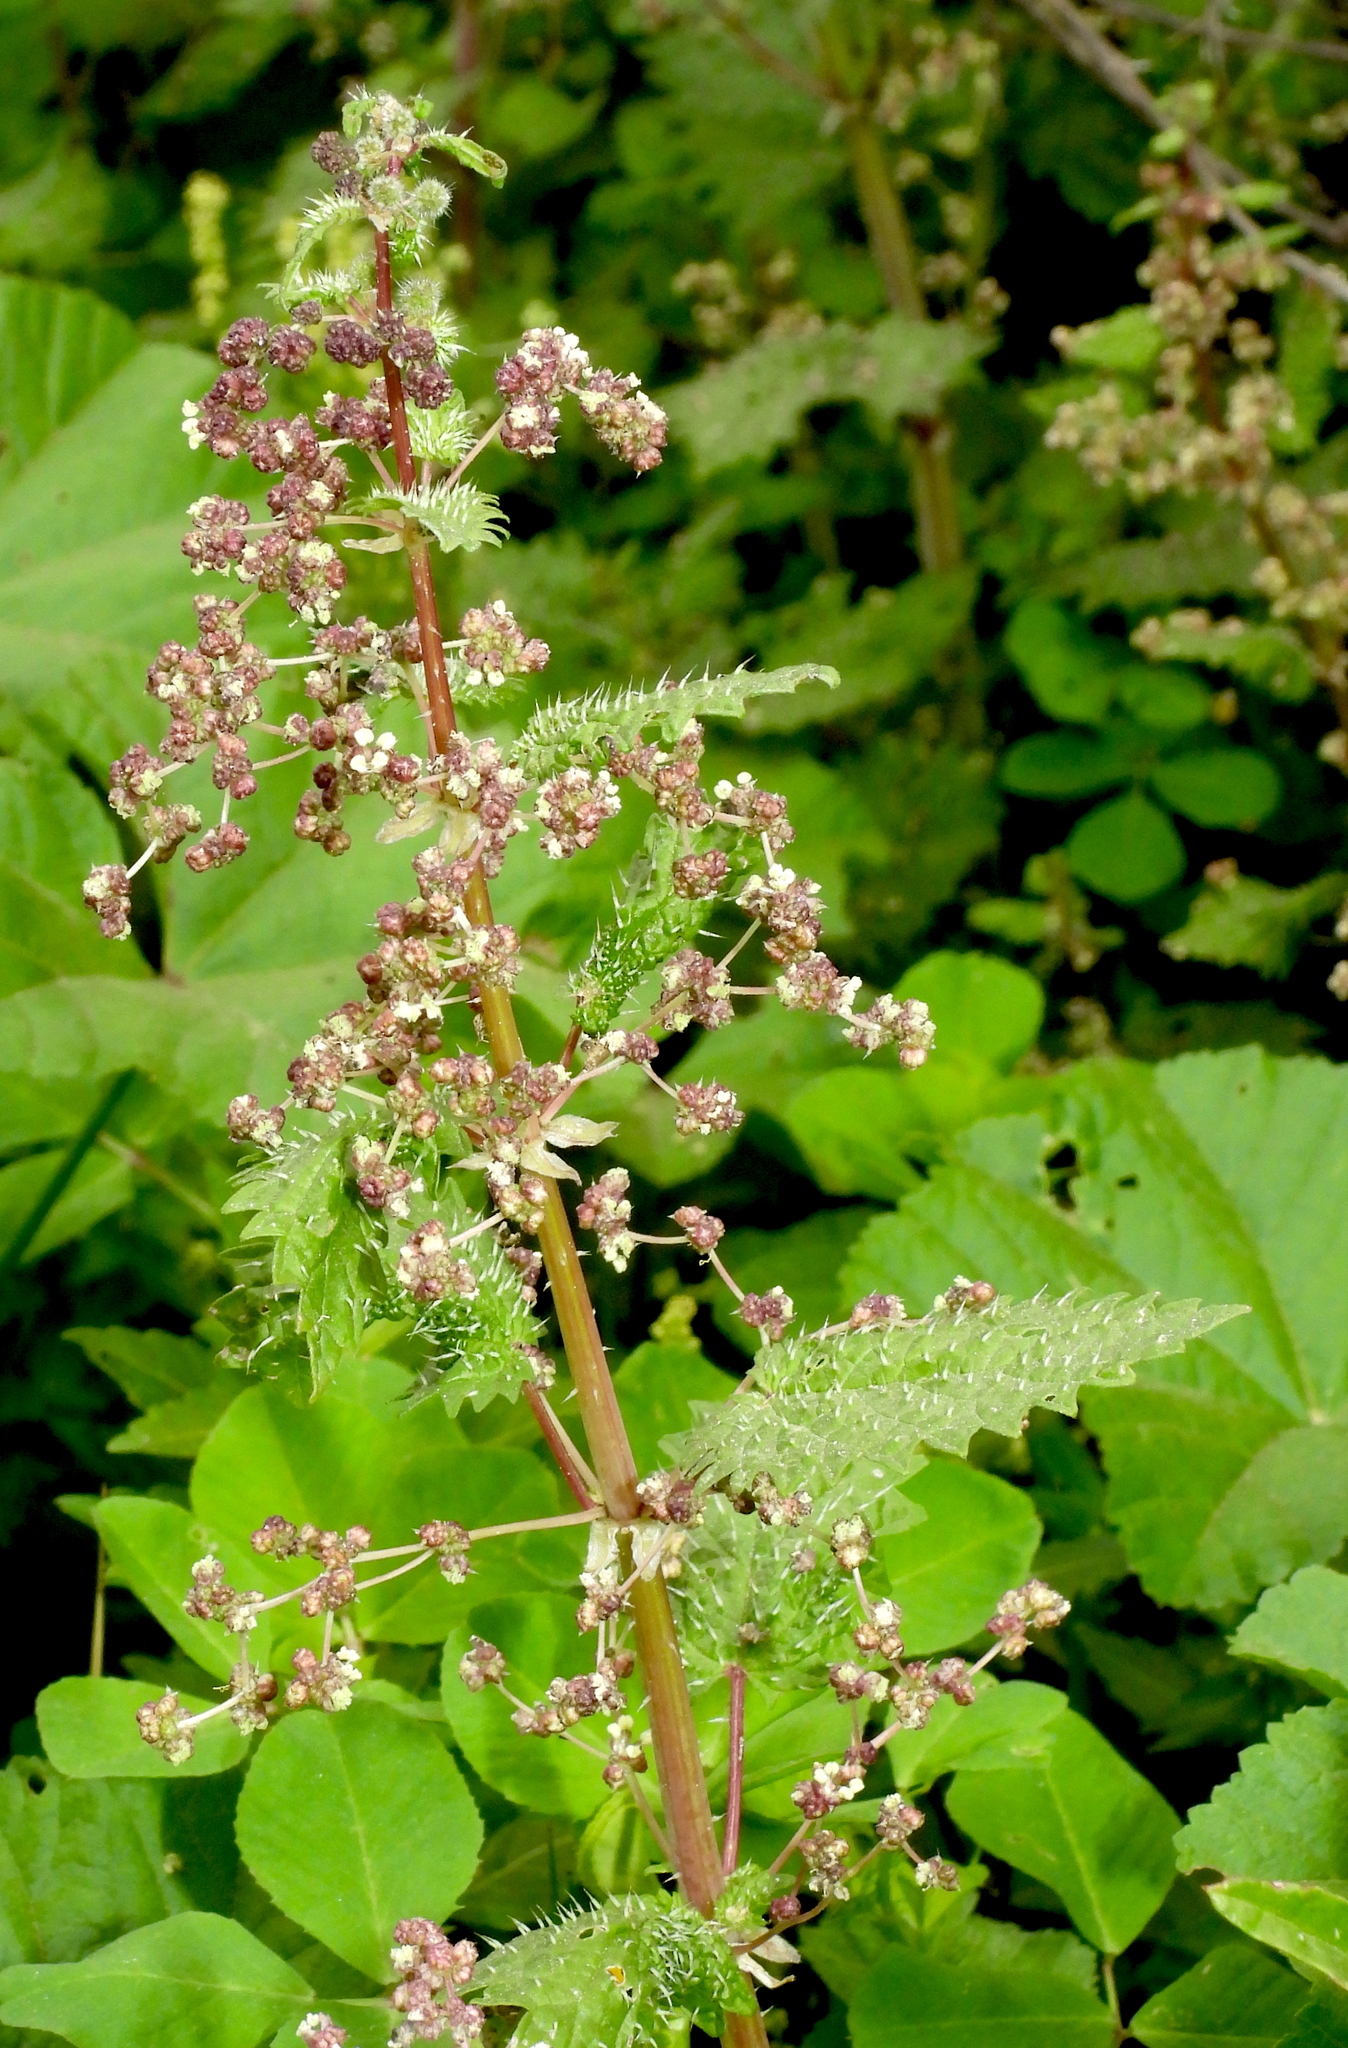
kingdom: Plantae
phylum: Tracheophyta
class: Magnoliopsida
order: Rosales
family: Urticaceae
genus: Urtica
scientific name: Urtica pilulifera
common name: Roman nettle
